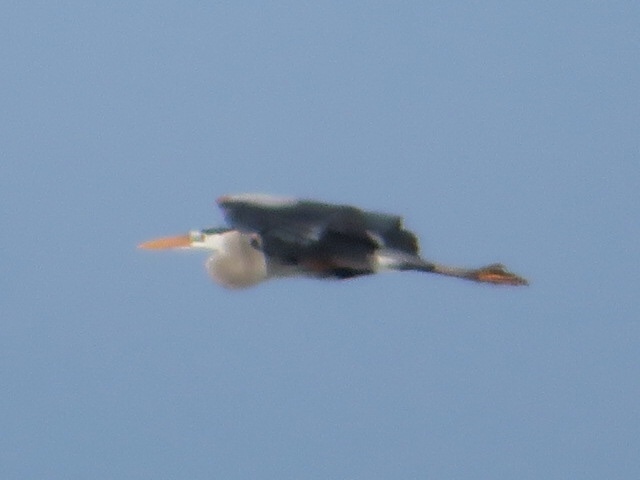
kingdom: Animalia
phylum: Chordata
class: Aves
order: Pelecaniformes
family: Ardeidae
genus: Ardea
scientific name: Ardea herodias
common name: Great blue heron
